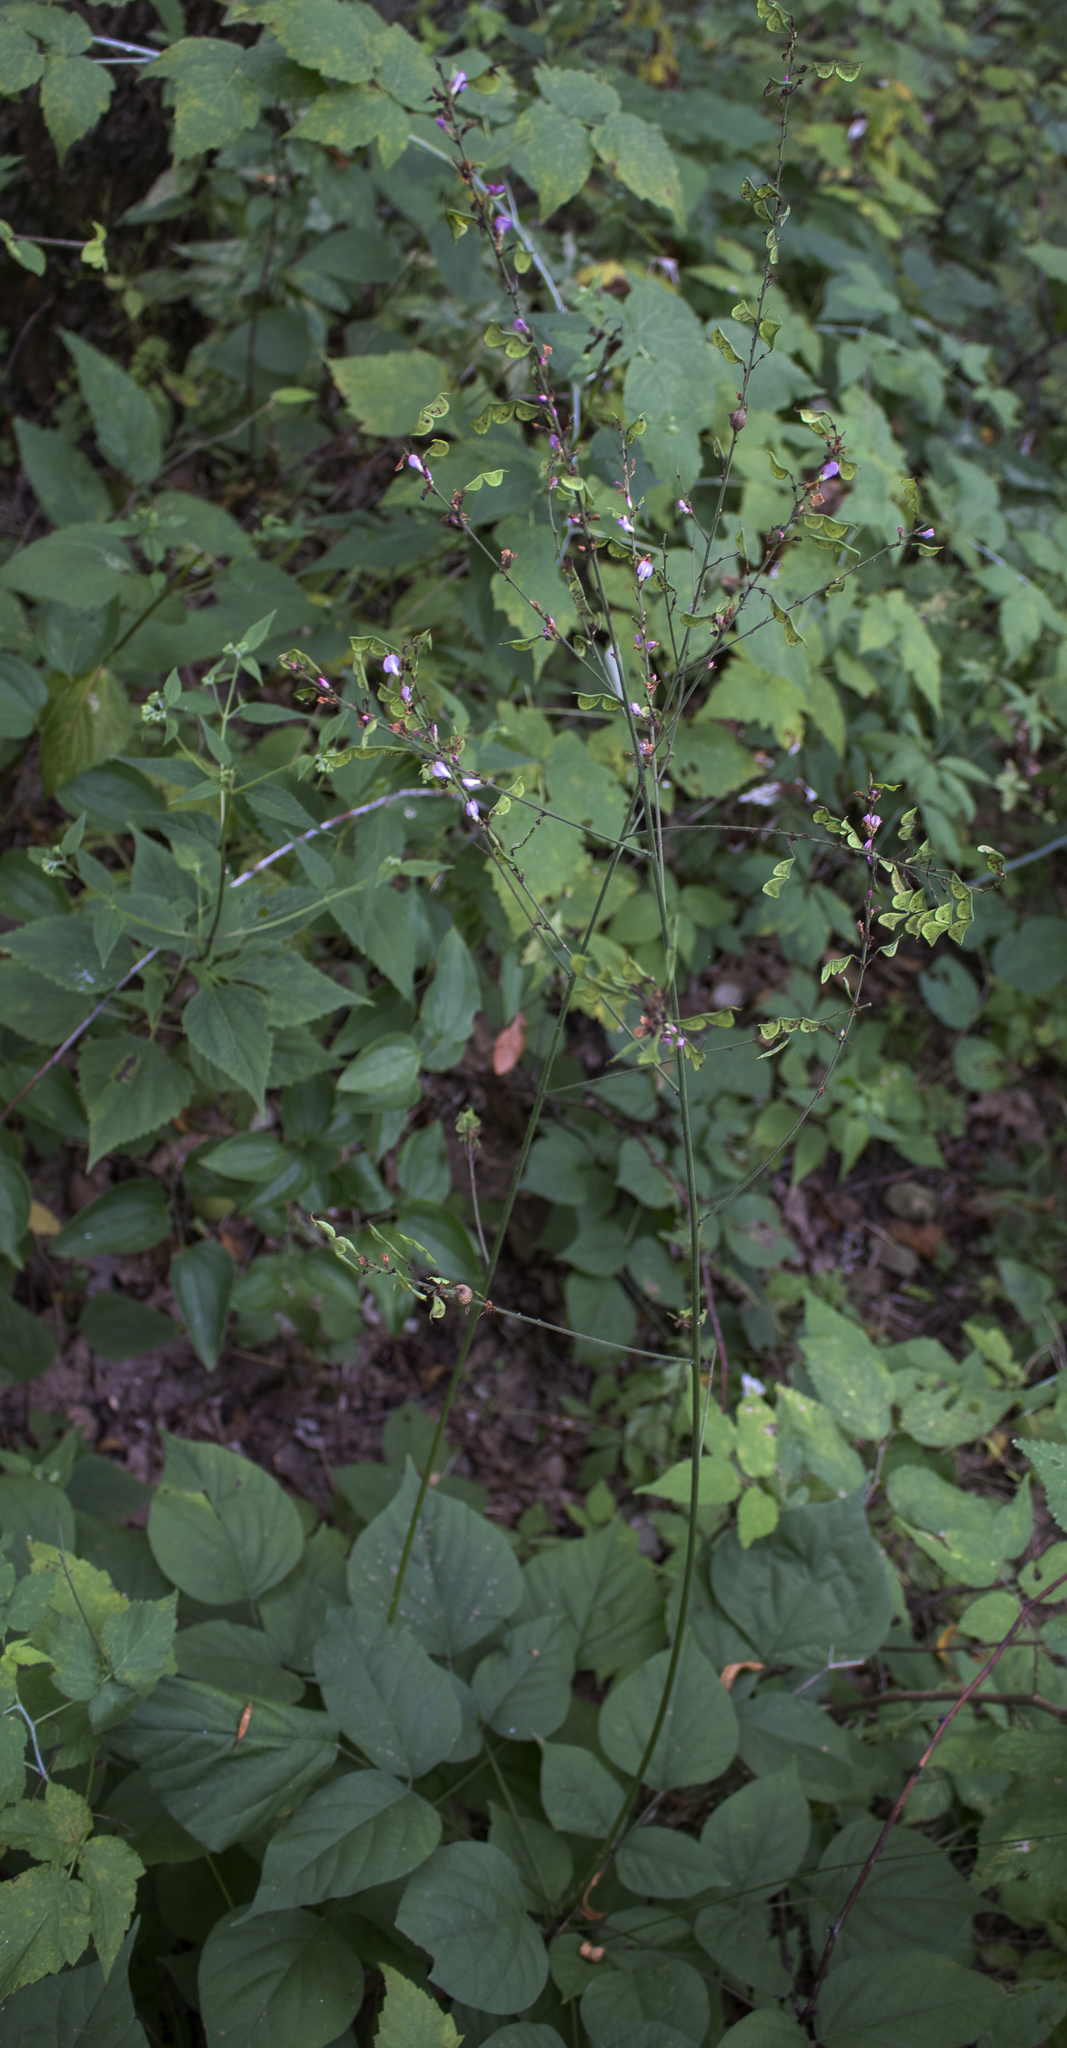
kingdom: Plantae
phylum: Tracheophyta
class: Magnoliopsida
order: Fabales
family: Fabaceae
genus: Hylodesmum
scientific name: Hylodesmum glutinosum
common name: Clustered-leaved tick-trefoil
